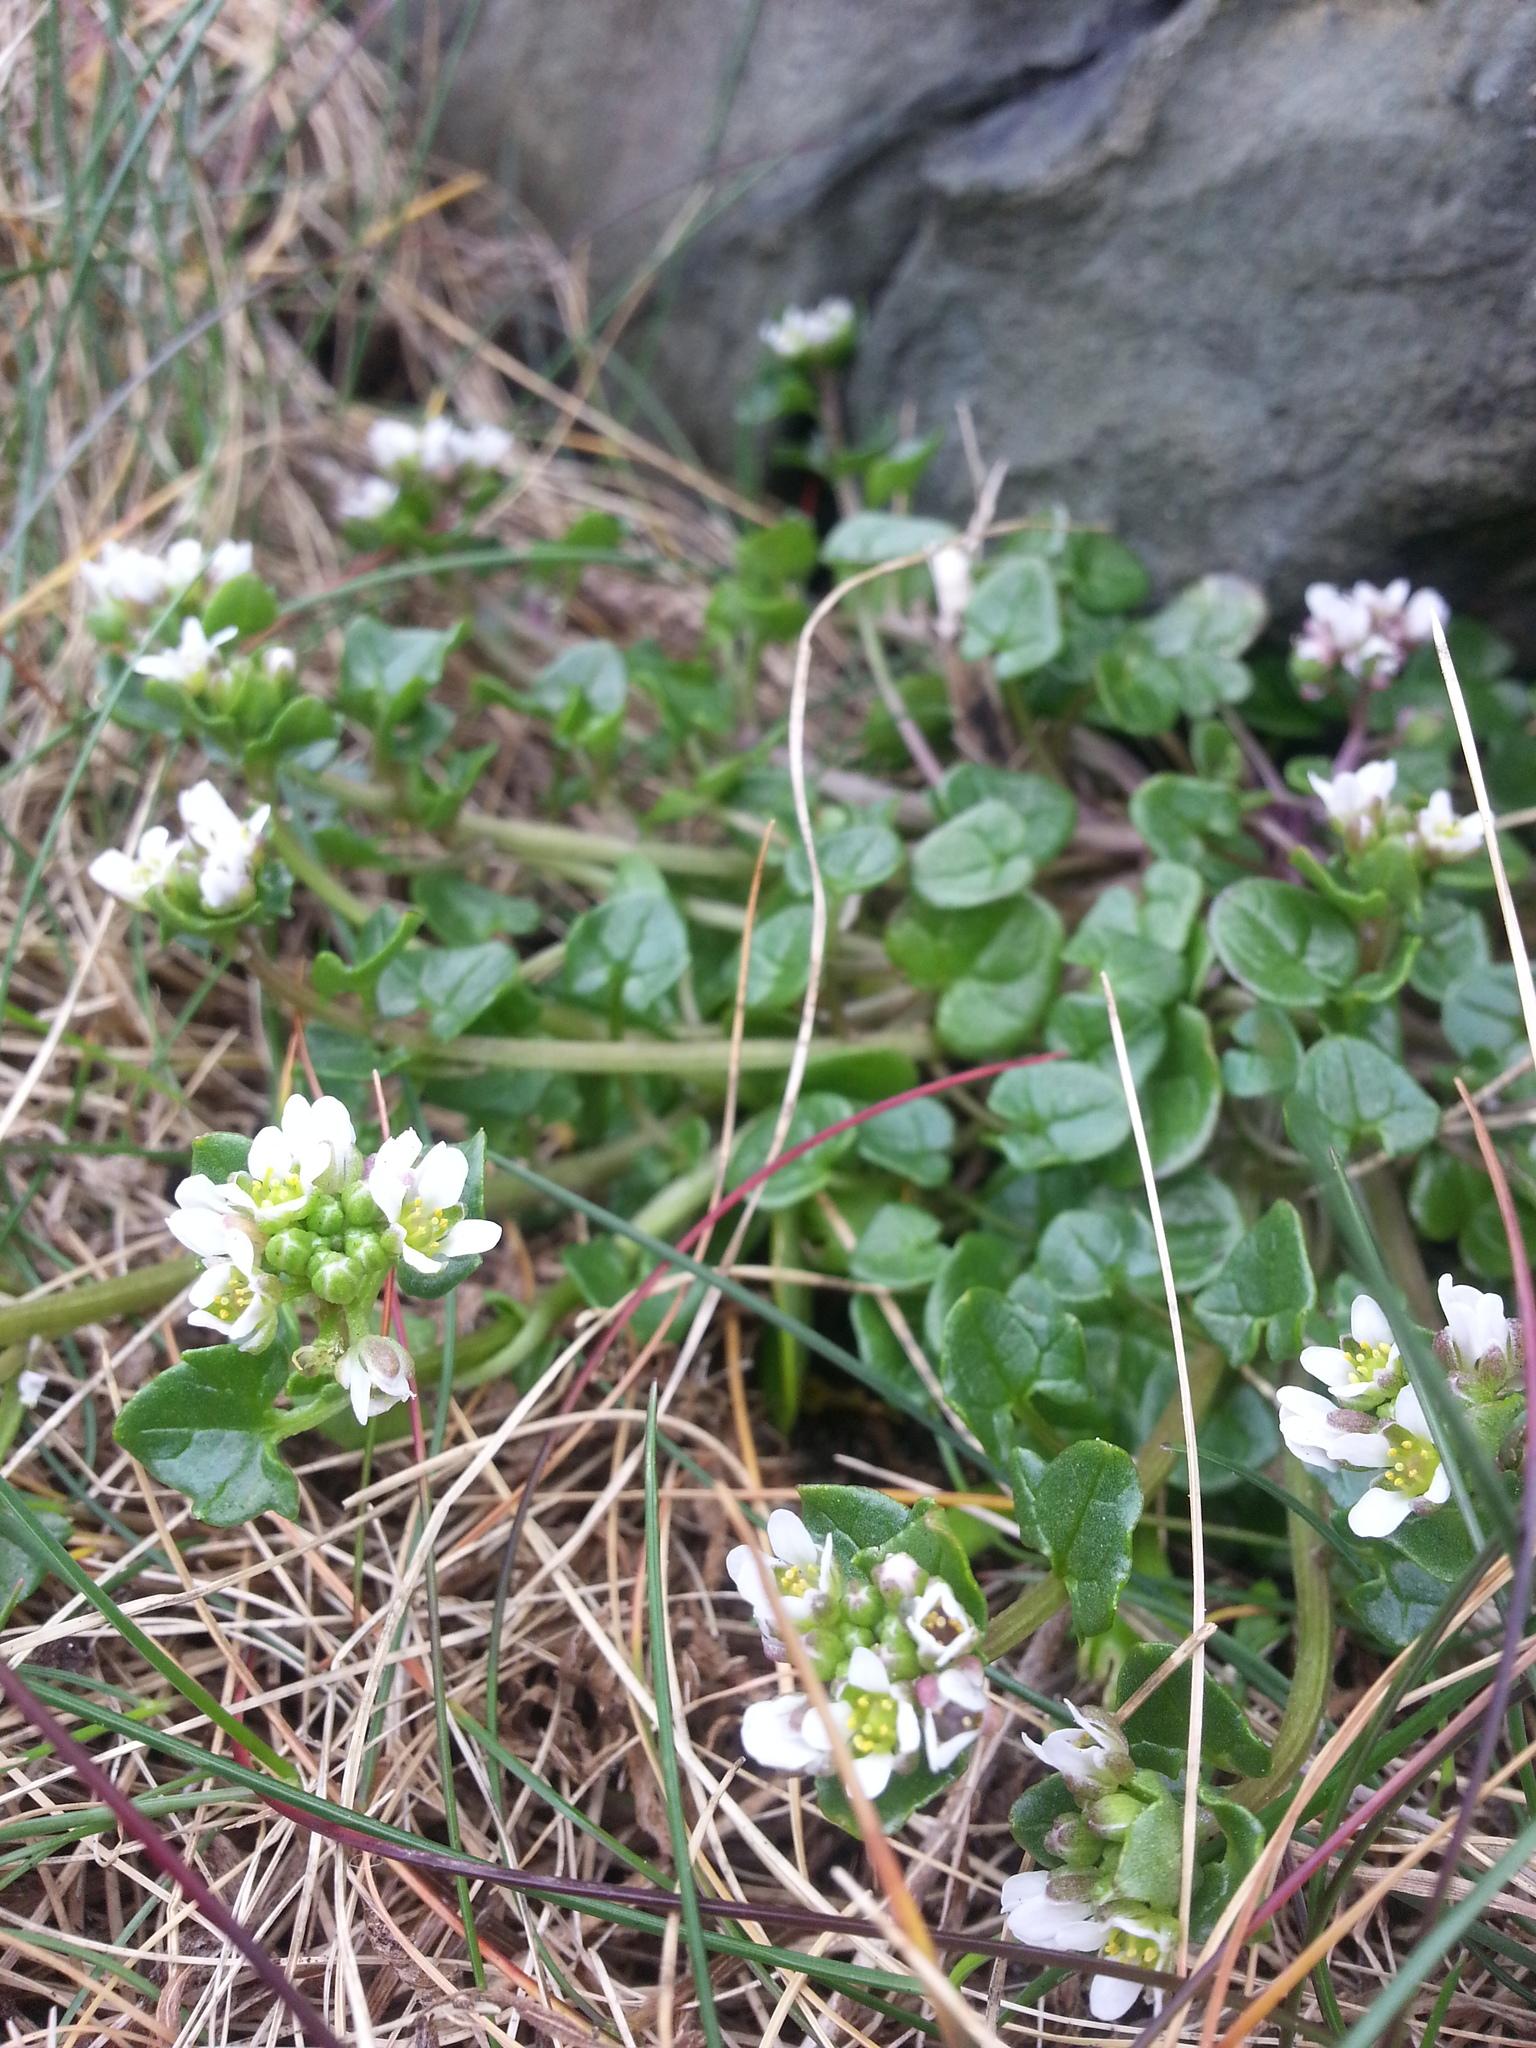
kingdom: Plantae
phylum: Tracheophyta
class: Magnoliopsida
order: Brassicales
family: Brassicaceae
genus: Cochlearia
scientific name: Cochlearia officinalis
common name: Scurvy-grass
